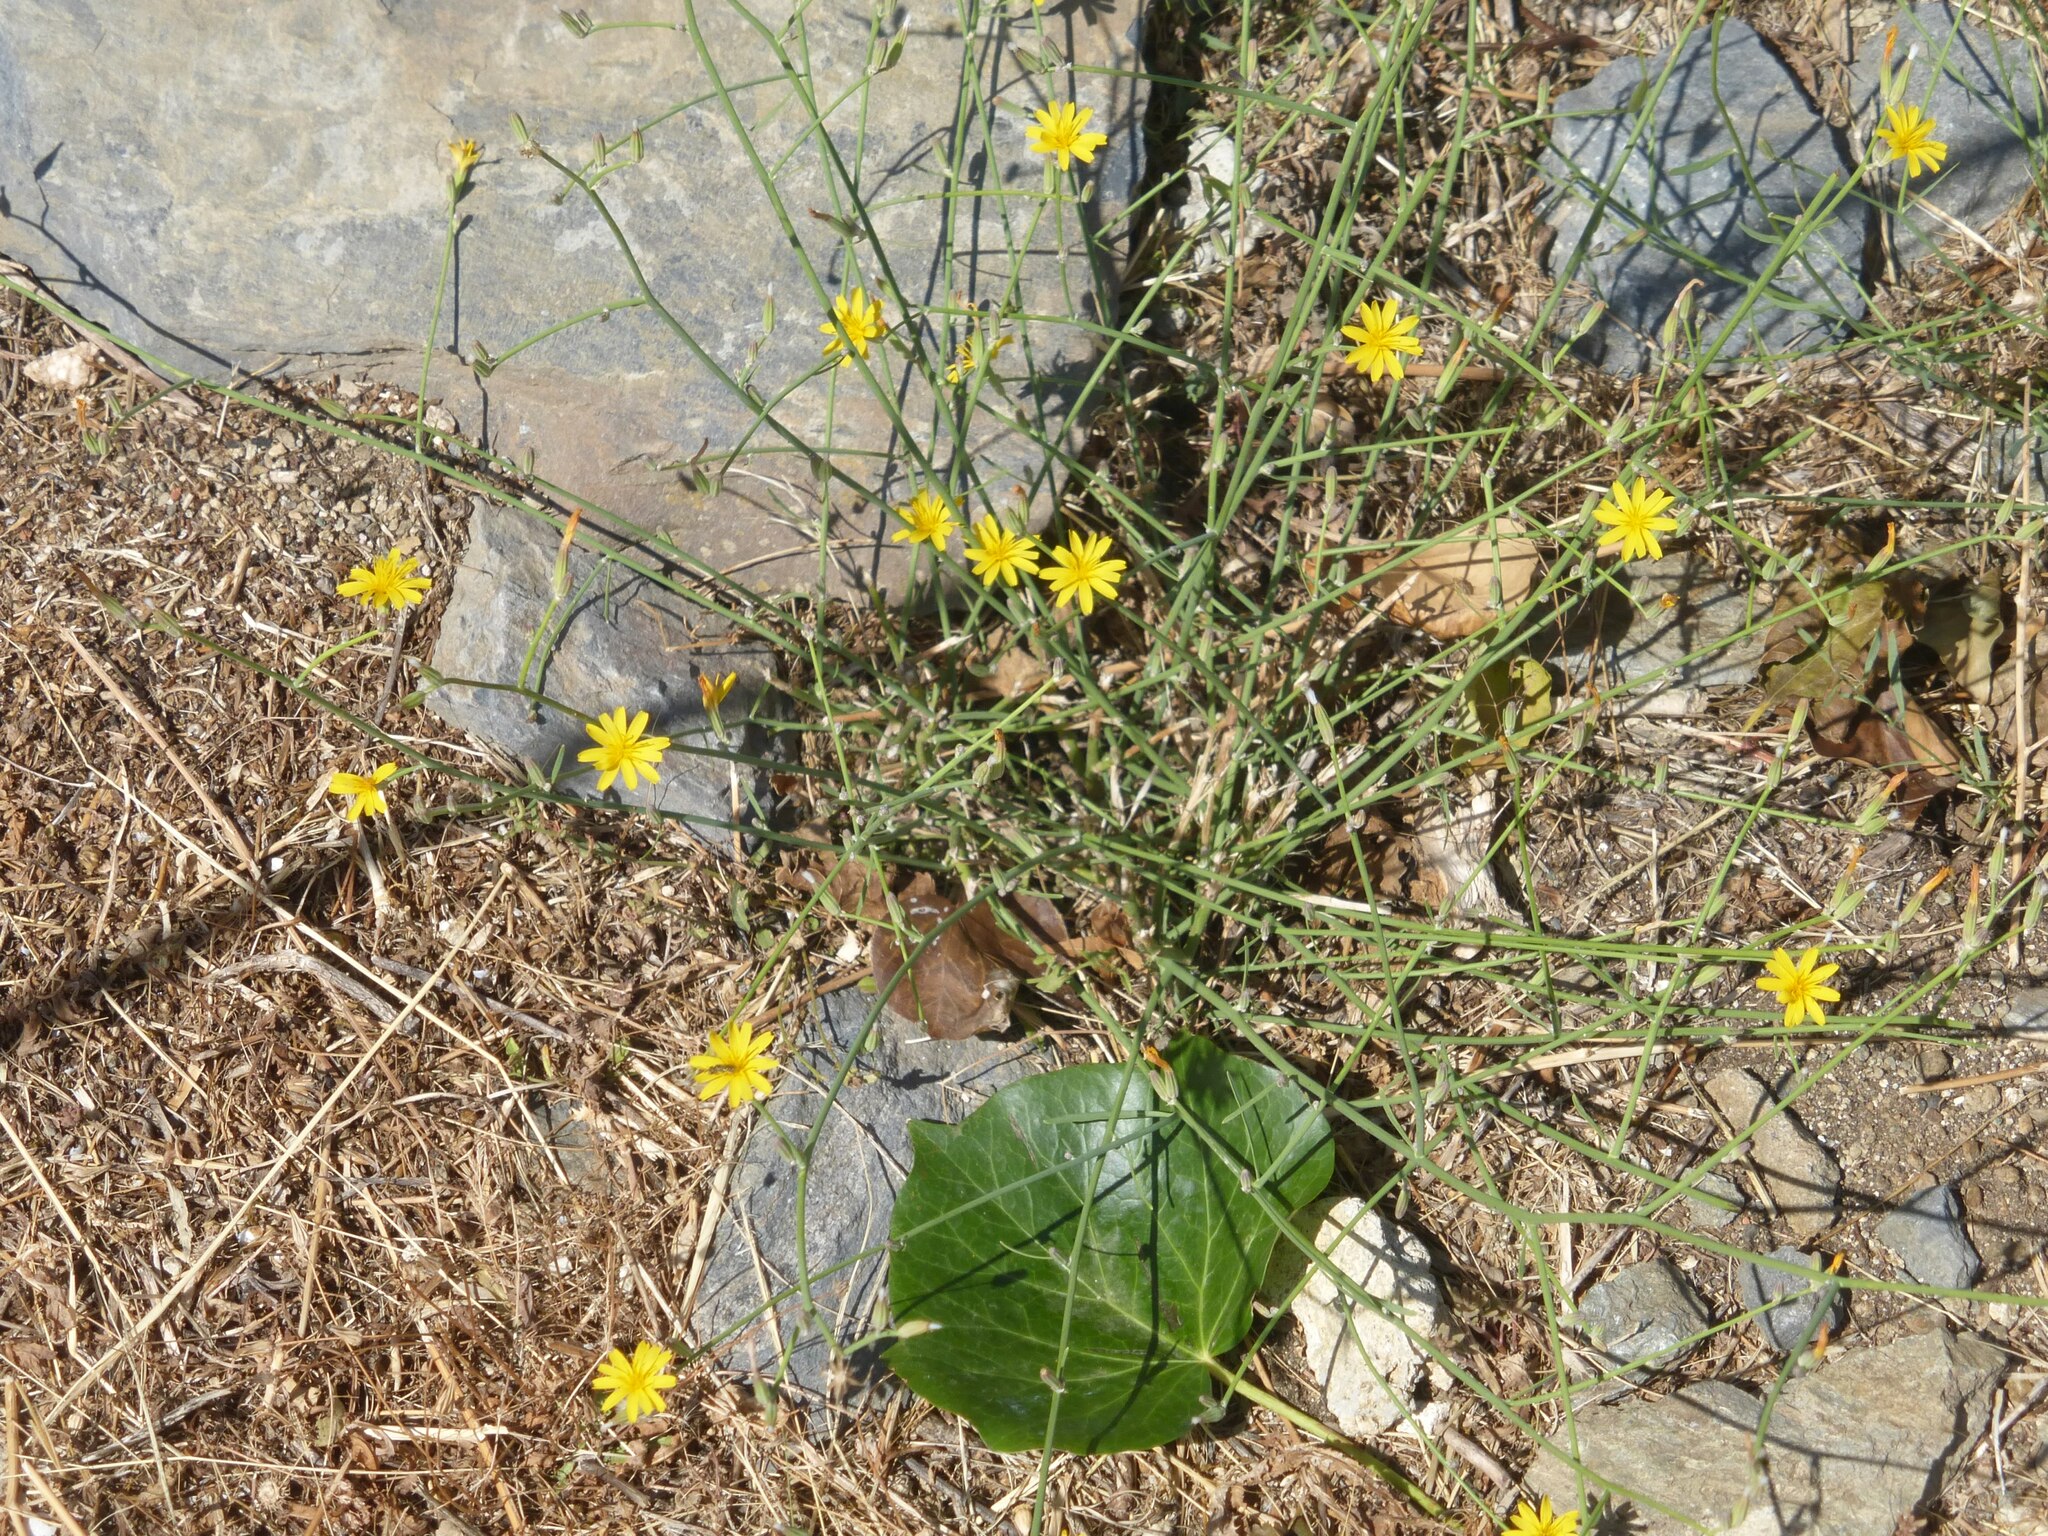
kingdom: Plantae
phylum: Tracheophyta
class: Magnoliopsida
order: Asterales
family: Asteraceae
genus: Chondrilla
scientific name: Chondrilla juncea
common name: Skeleton weed
